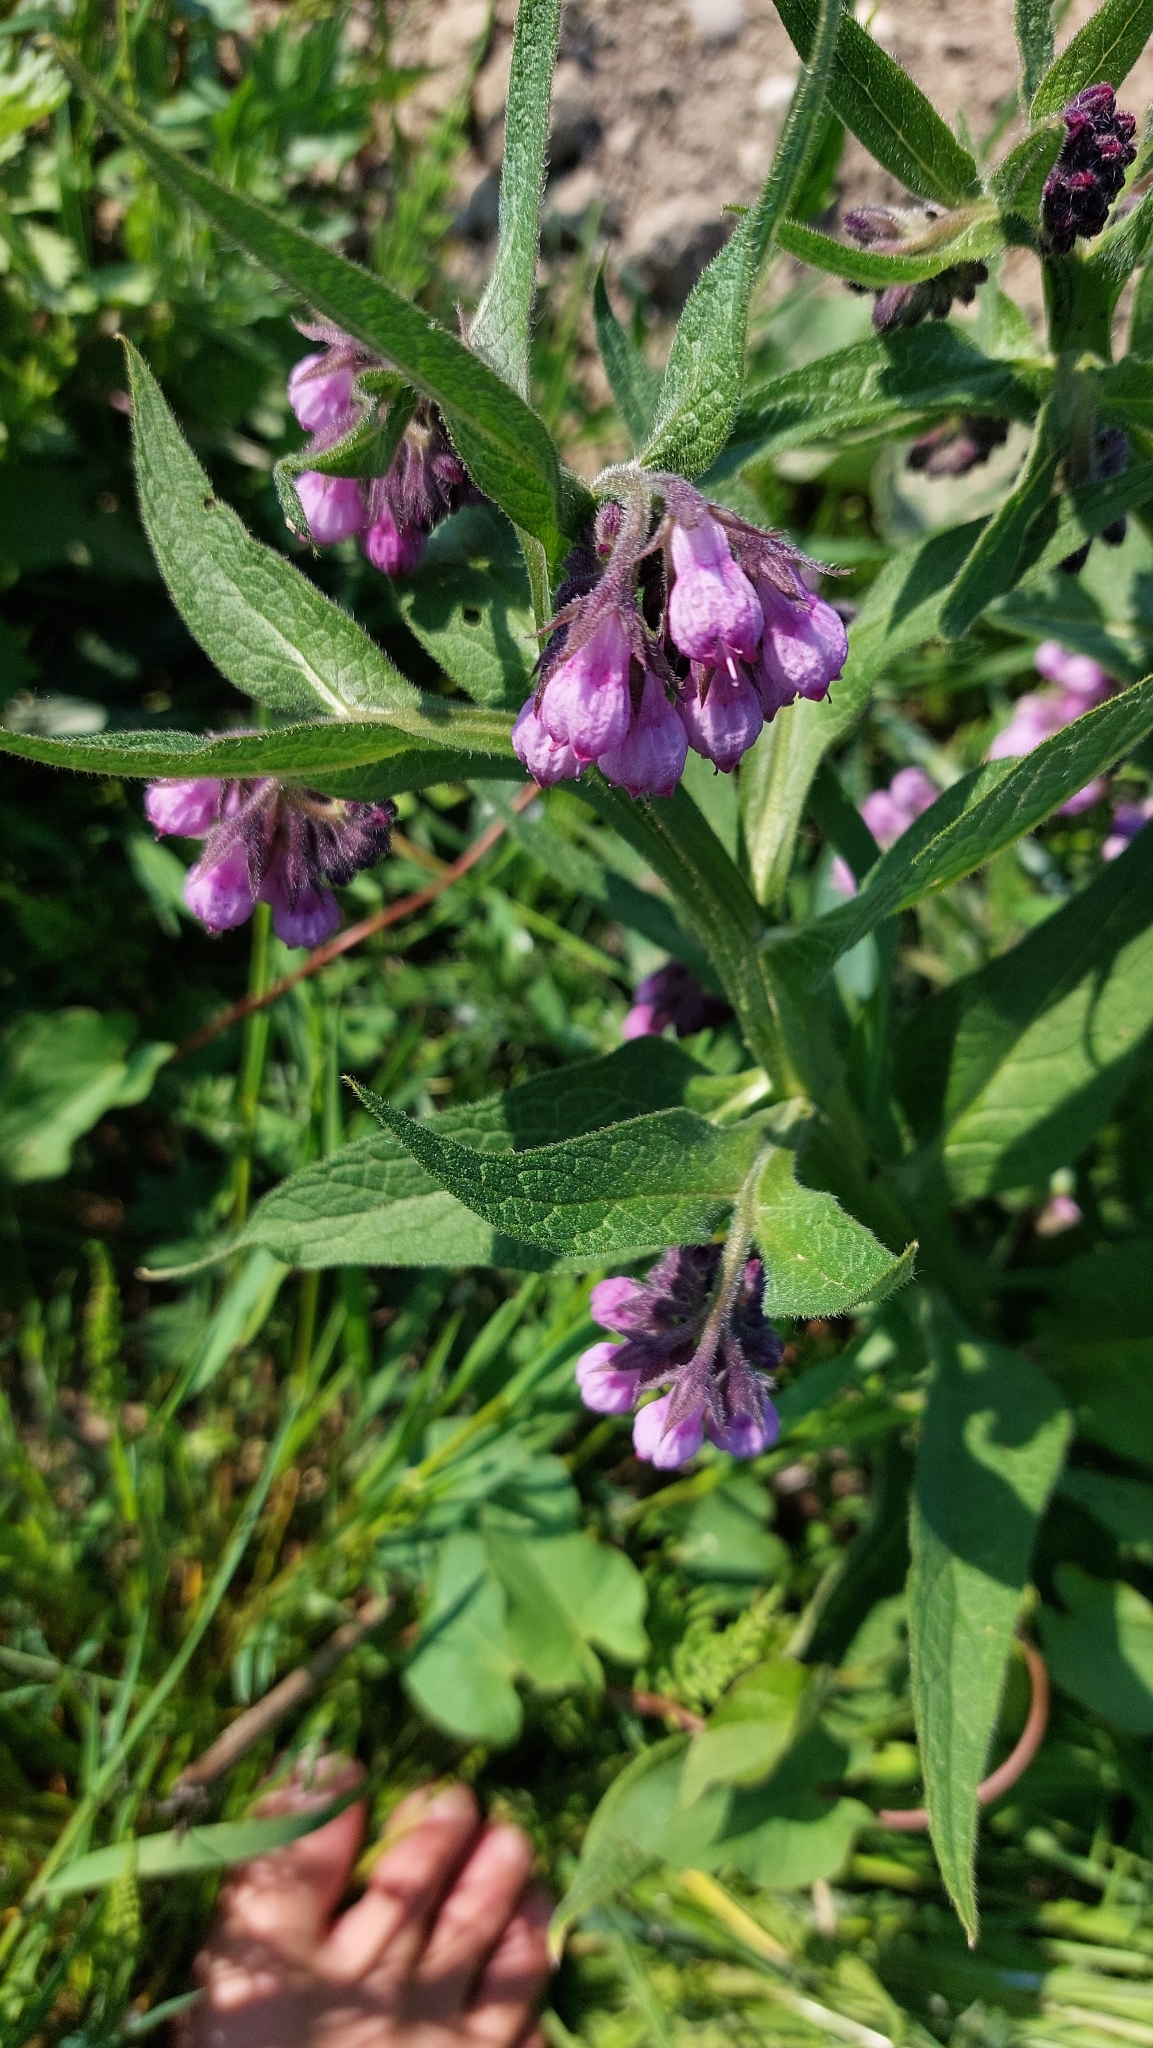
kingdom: Plantae
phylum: Tracheophyta
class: Magnoliopsida
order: Boraginales
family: Boraginaceae
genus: Symphytum
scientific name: Symphytum officinale
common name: Common comfrey
